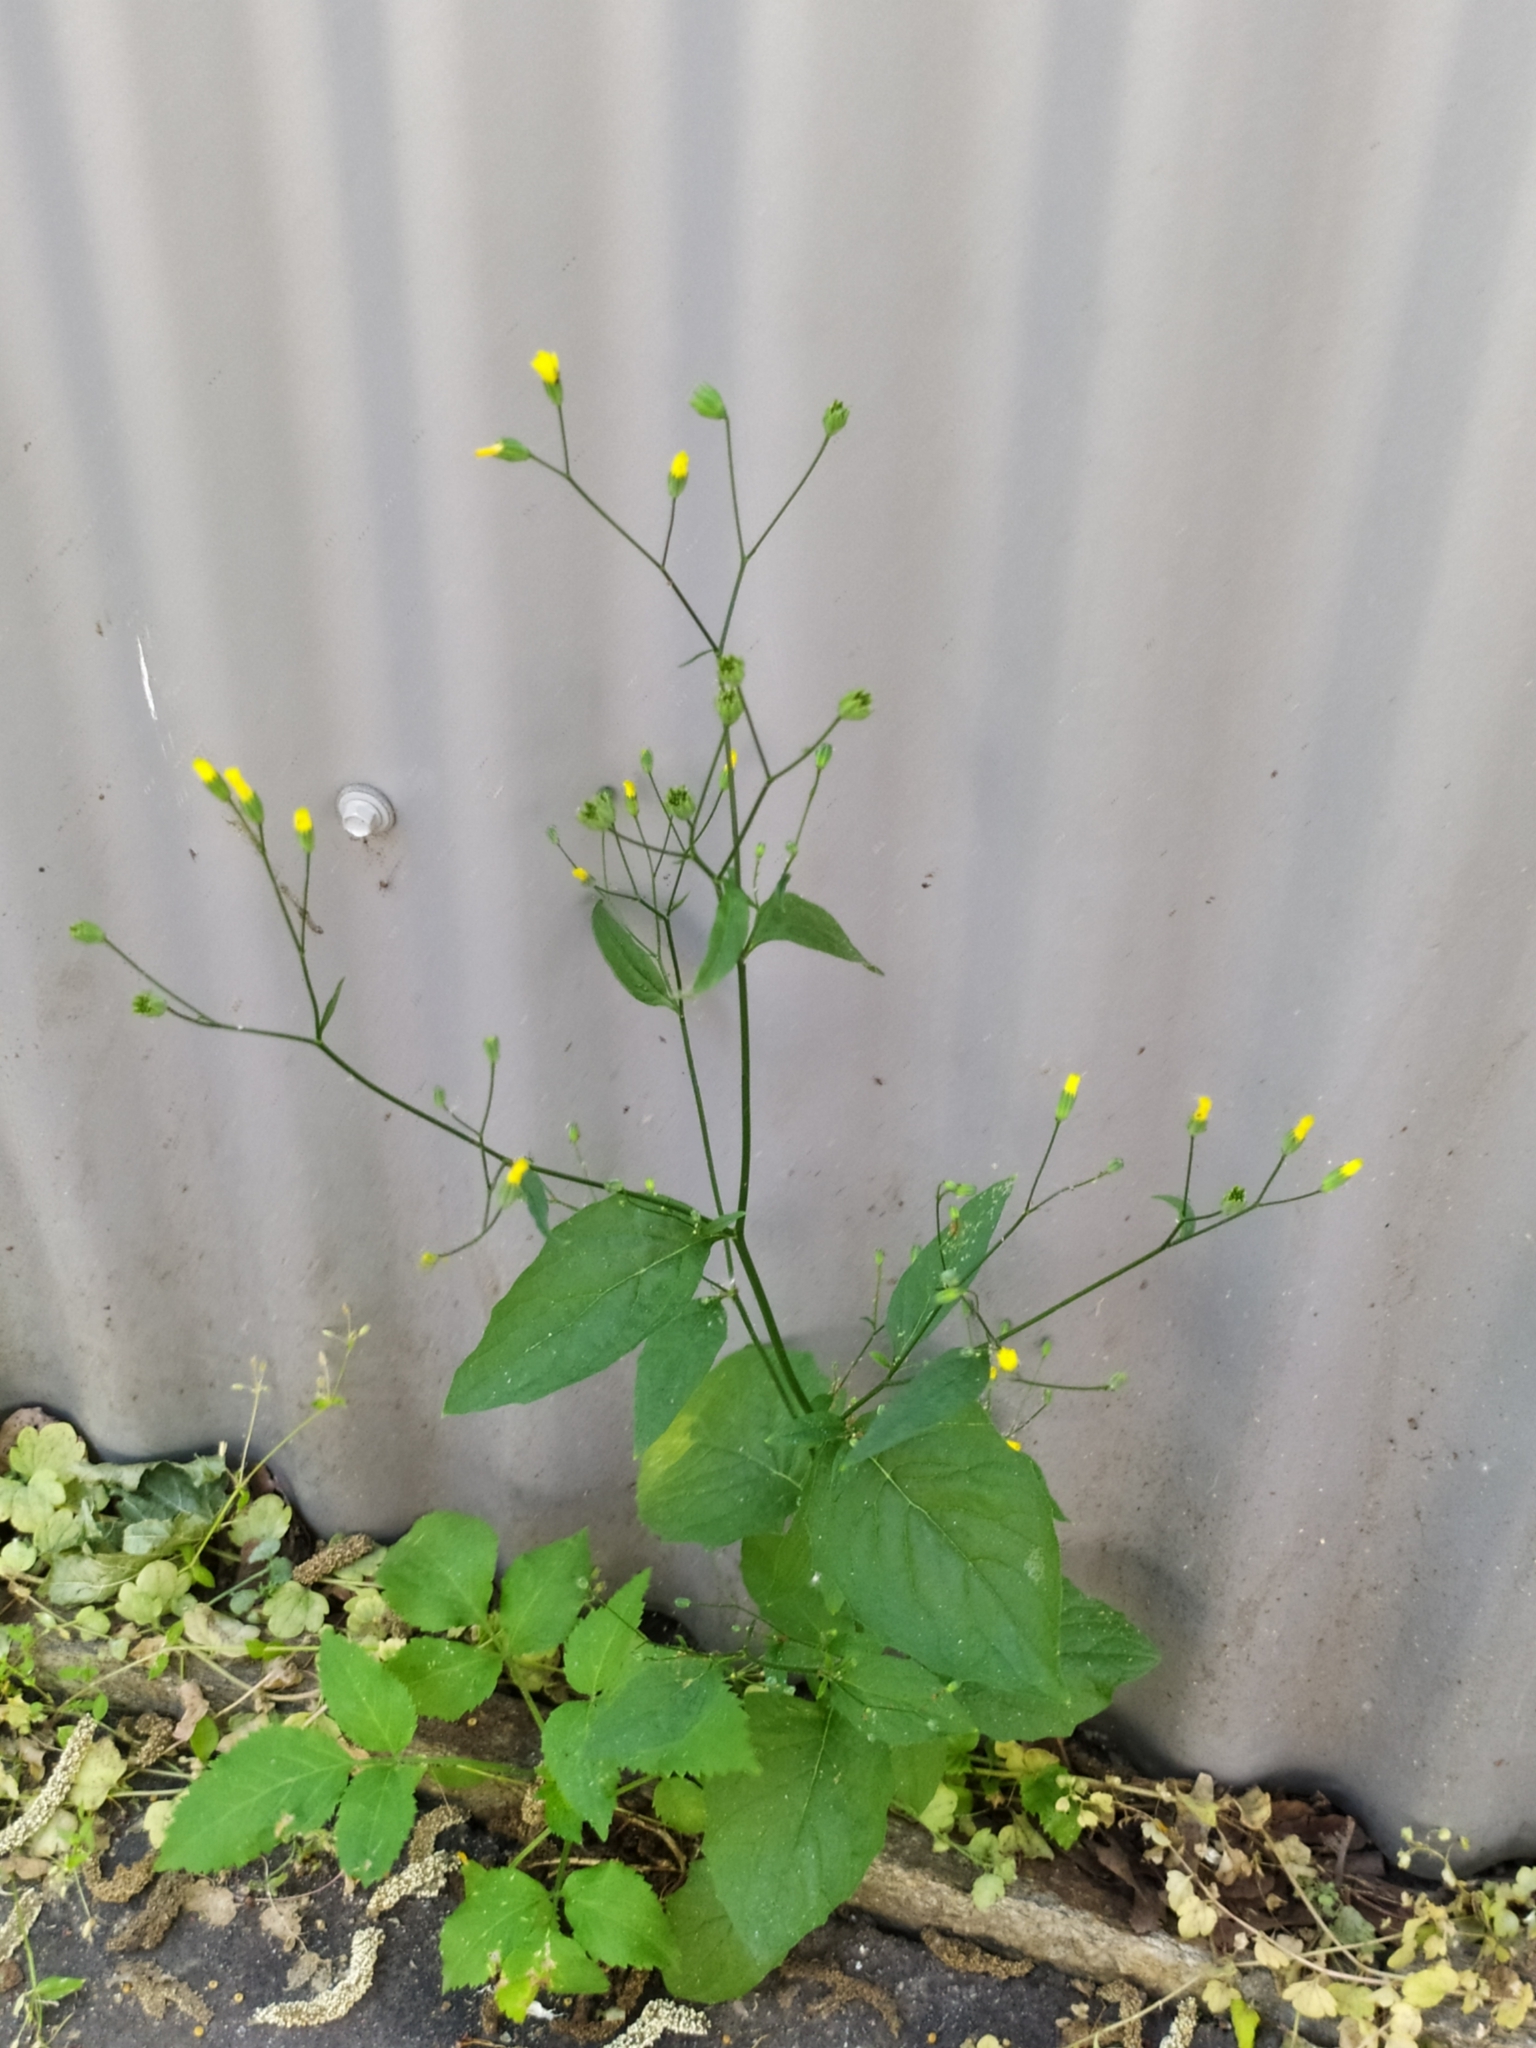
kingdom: Plantae
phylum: Tracheophyta
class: Magnoliopsida
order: Asterales
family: Asteraceae
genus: Lapsana
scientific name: Lapsana communis
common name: Nipplewort
